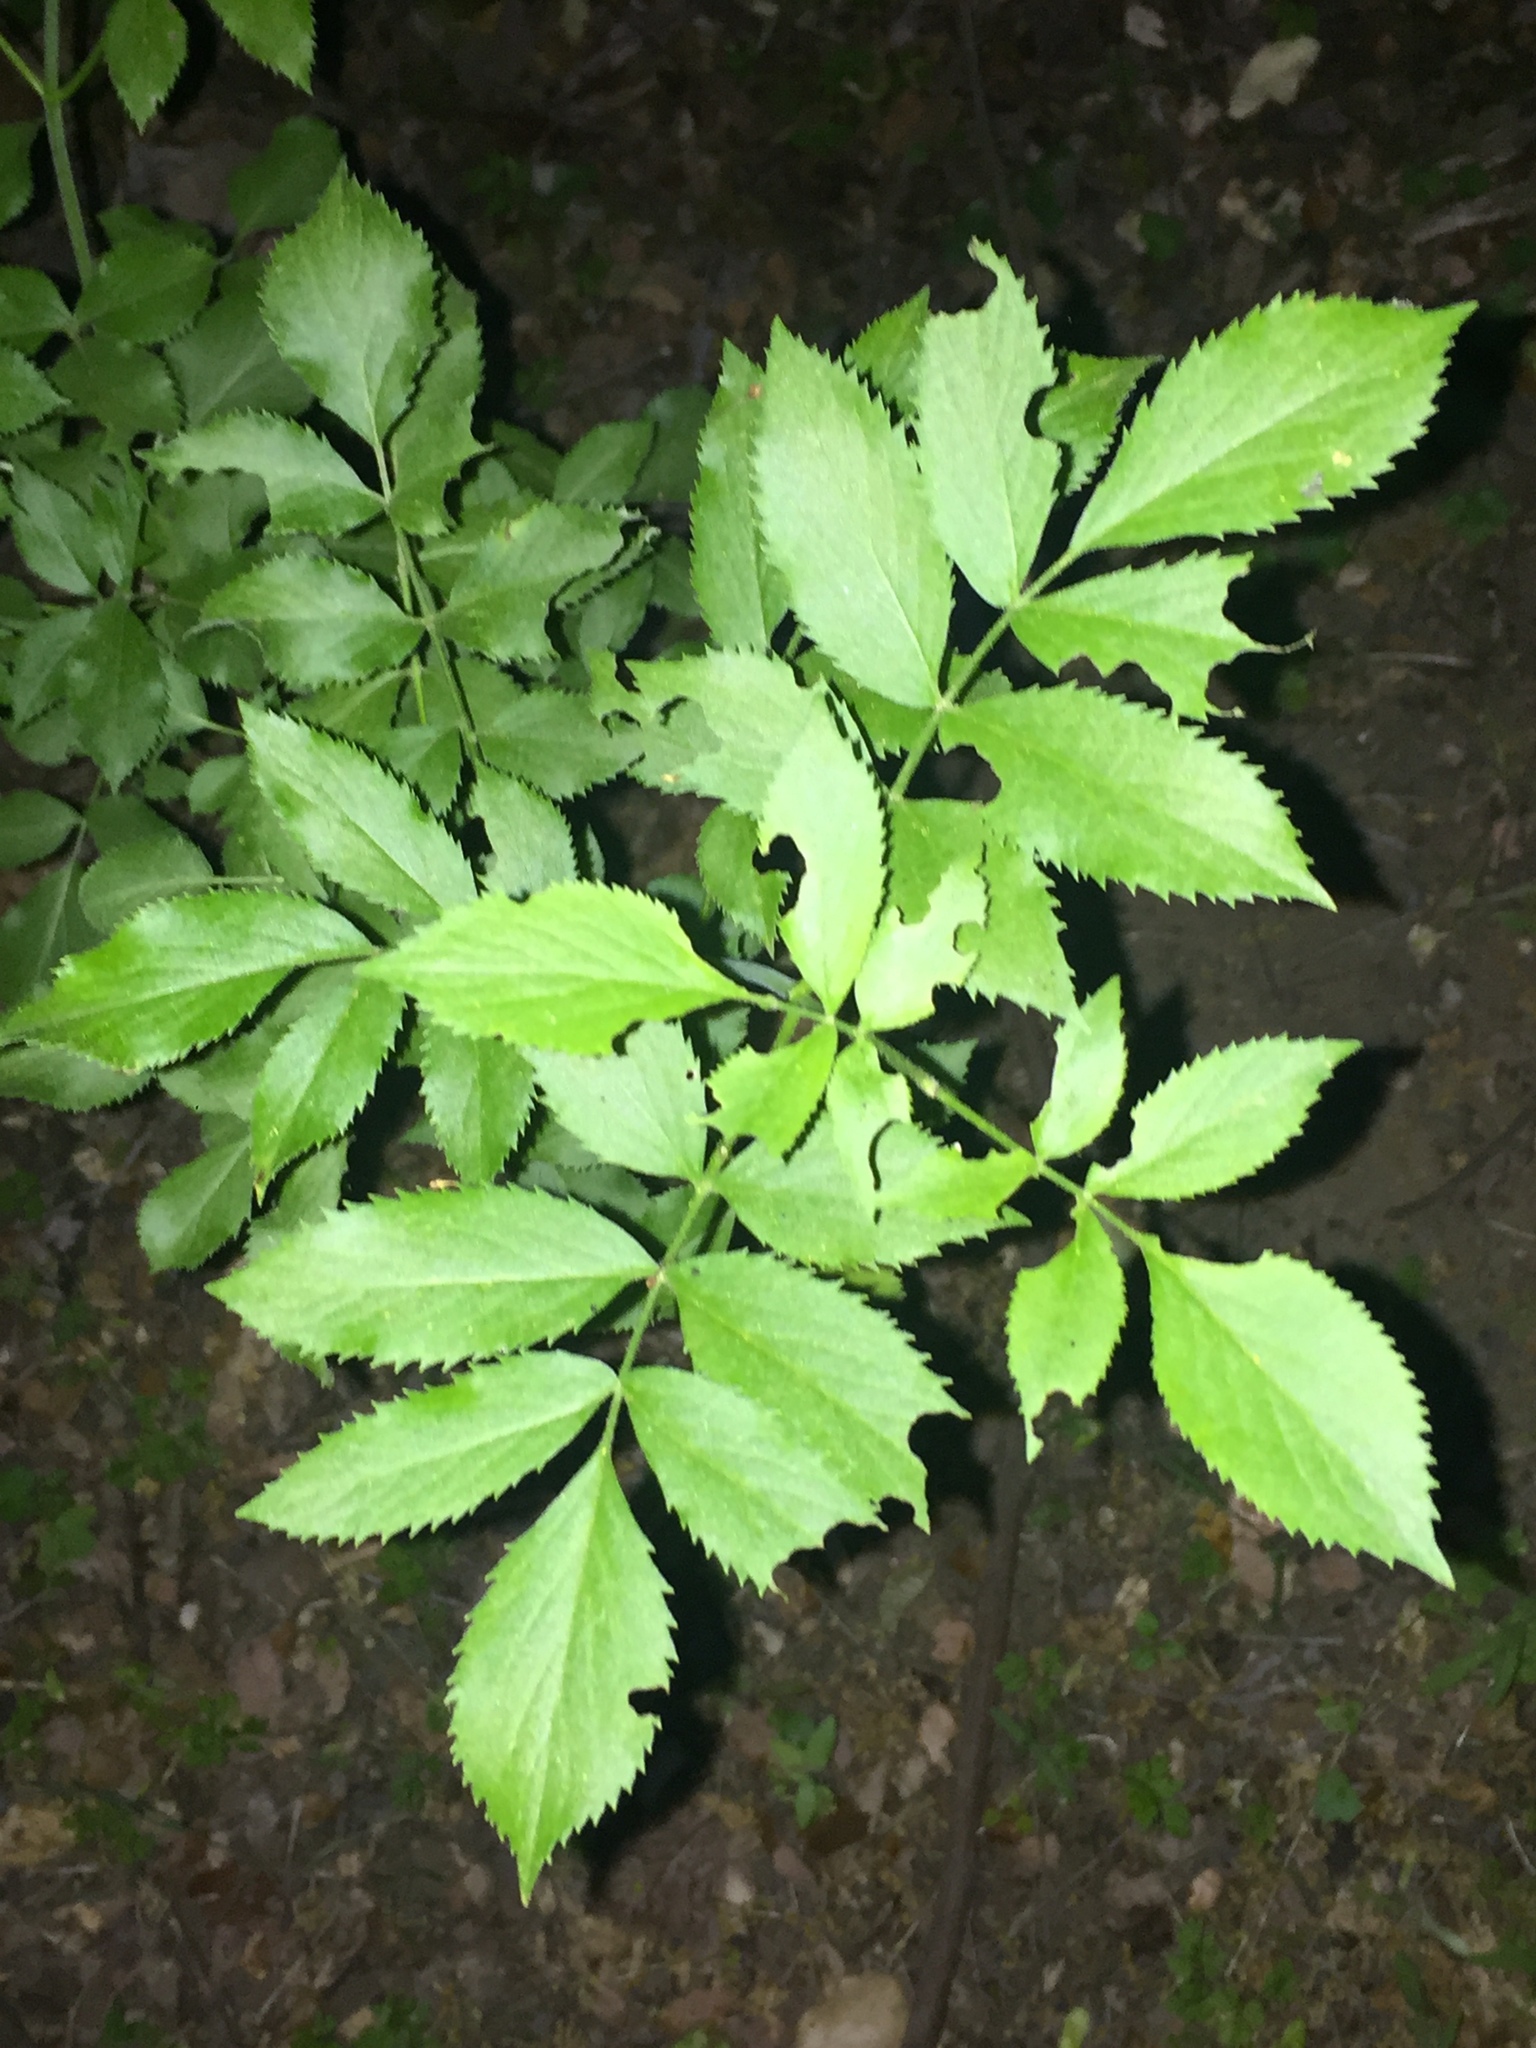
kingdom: Plantae
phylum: Tracheophyta
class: Magnoliopsida
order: Dipsacales
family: Viburnaceae
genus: Sambucus
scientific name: Sambucus cerulea
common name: Blue elder
